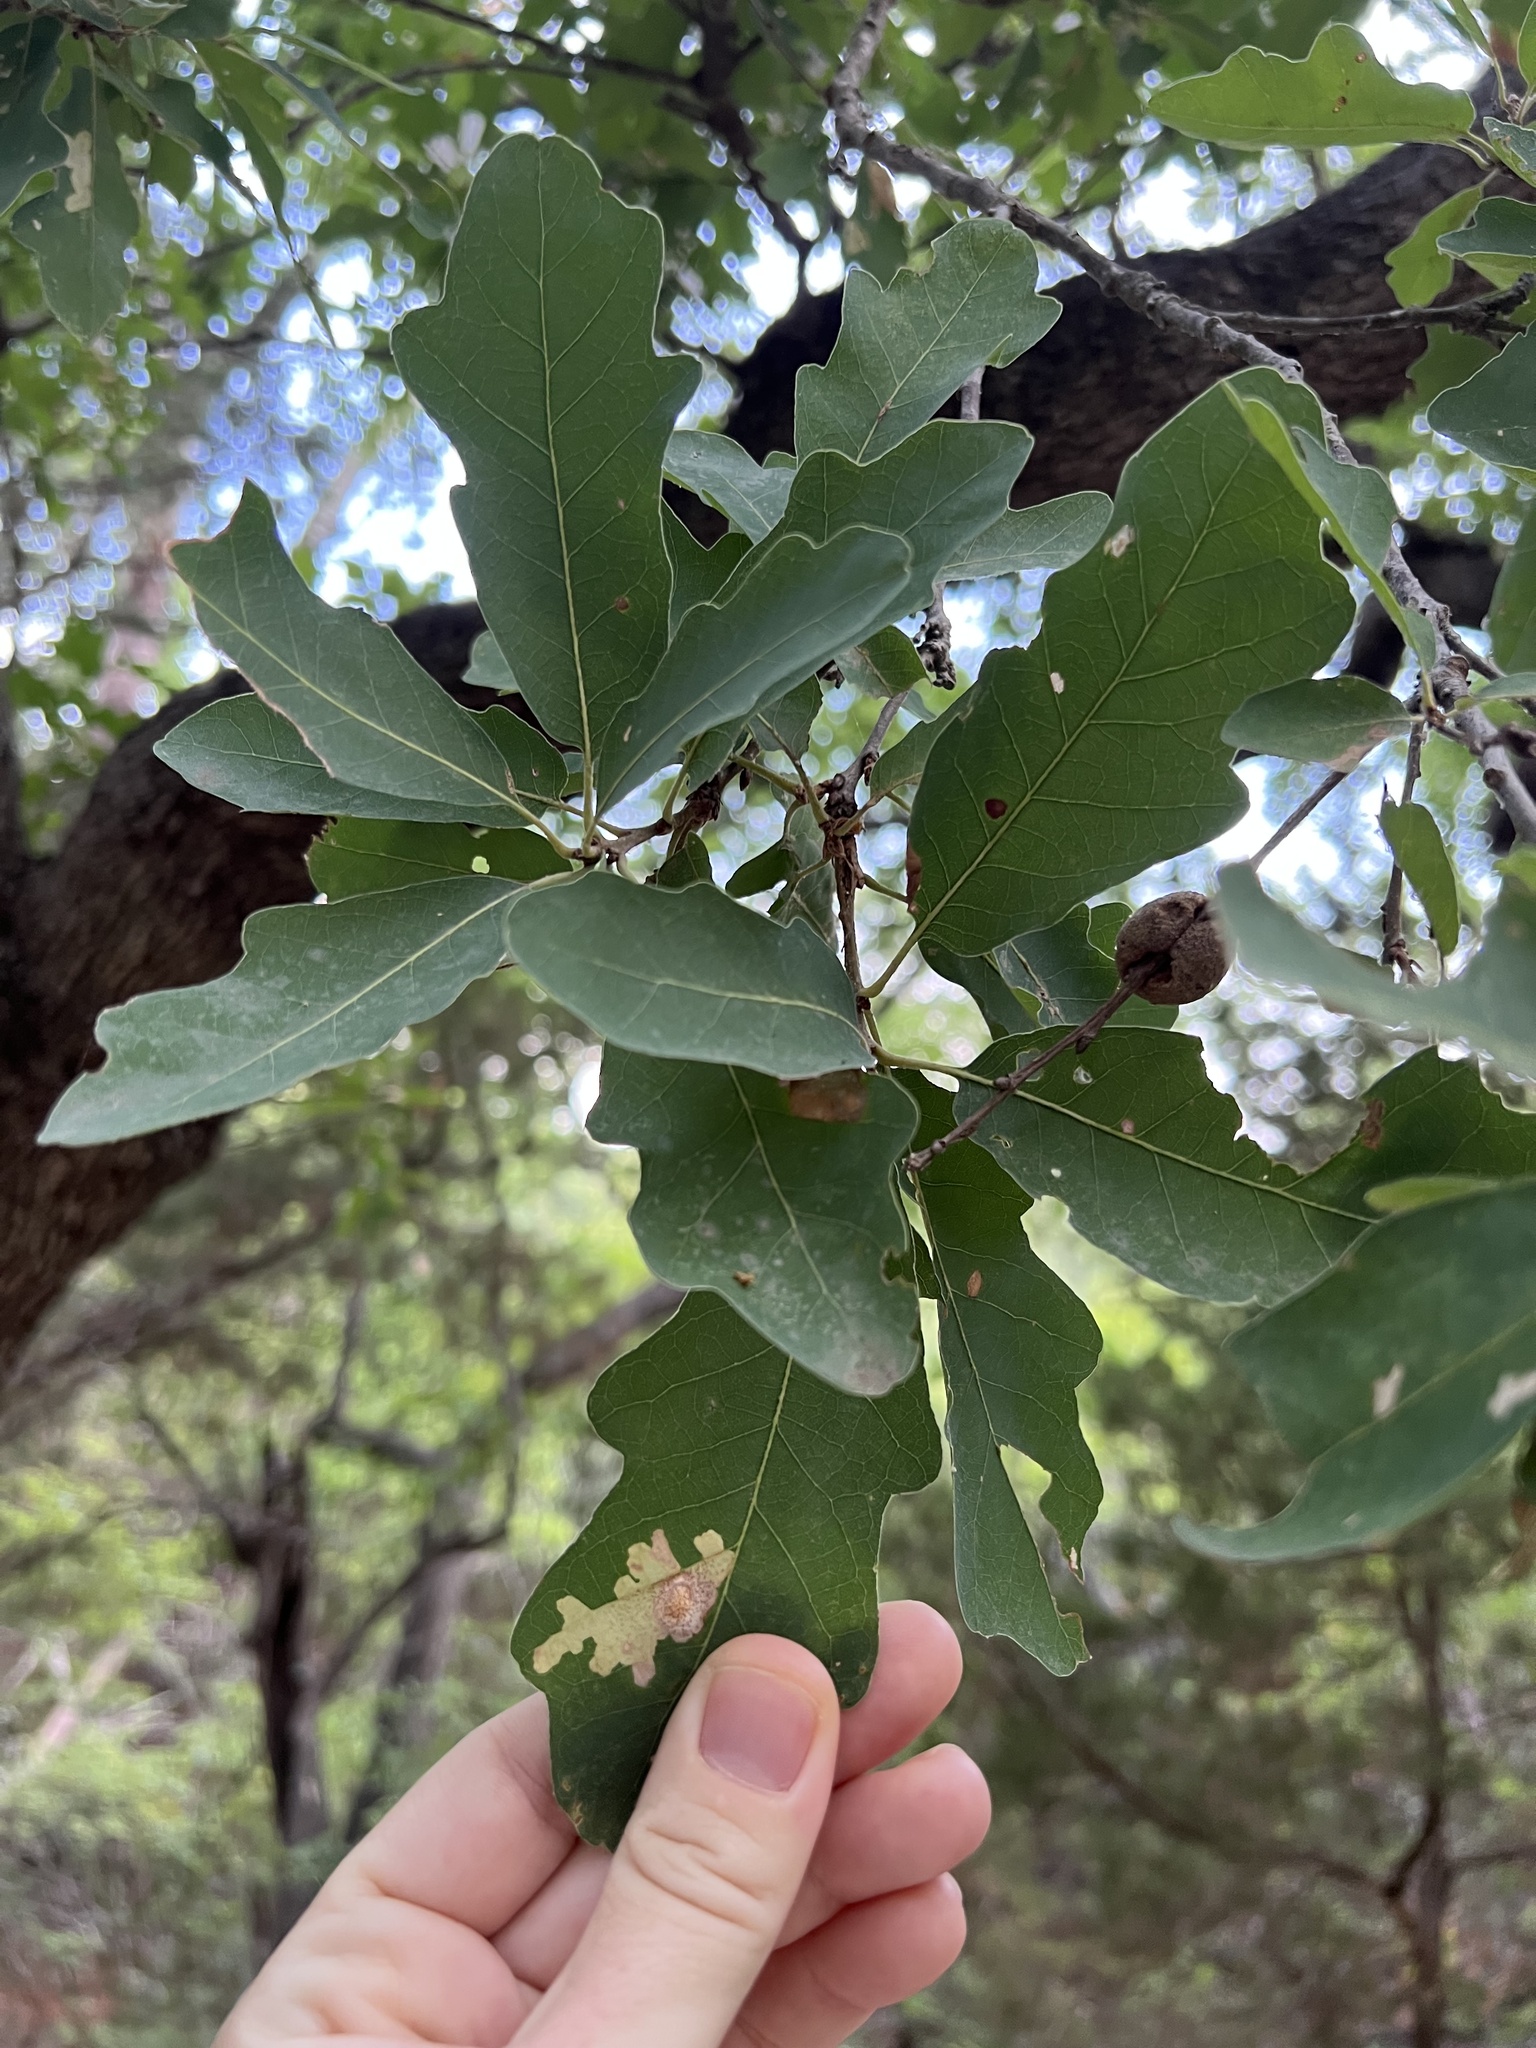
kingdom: Plantae
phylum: Tracheophyta
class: Magnoliopsida
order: Fagales
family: Fagaceae
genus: Quercus
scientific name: Quercus laceyi
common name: Lacey oak
